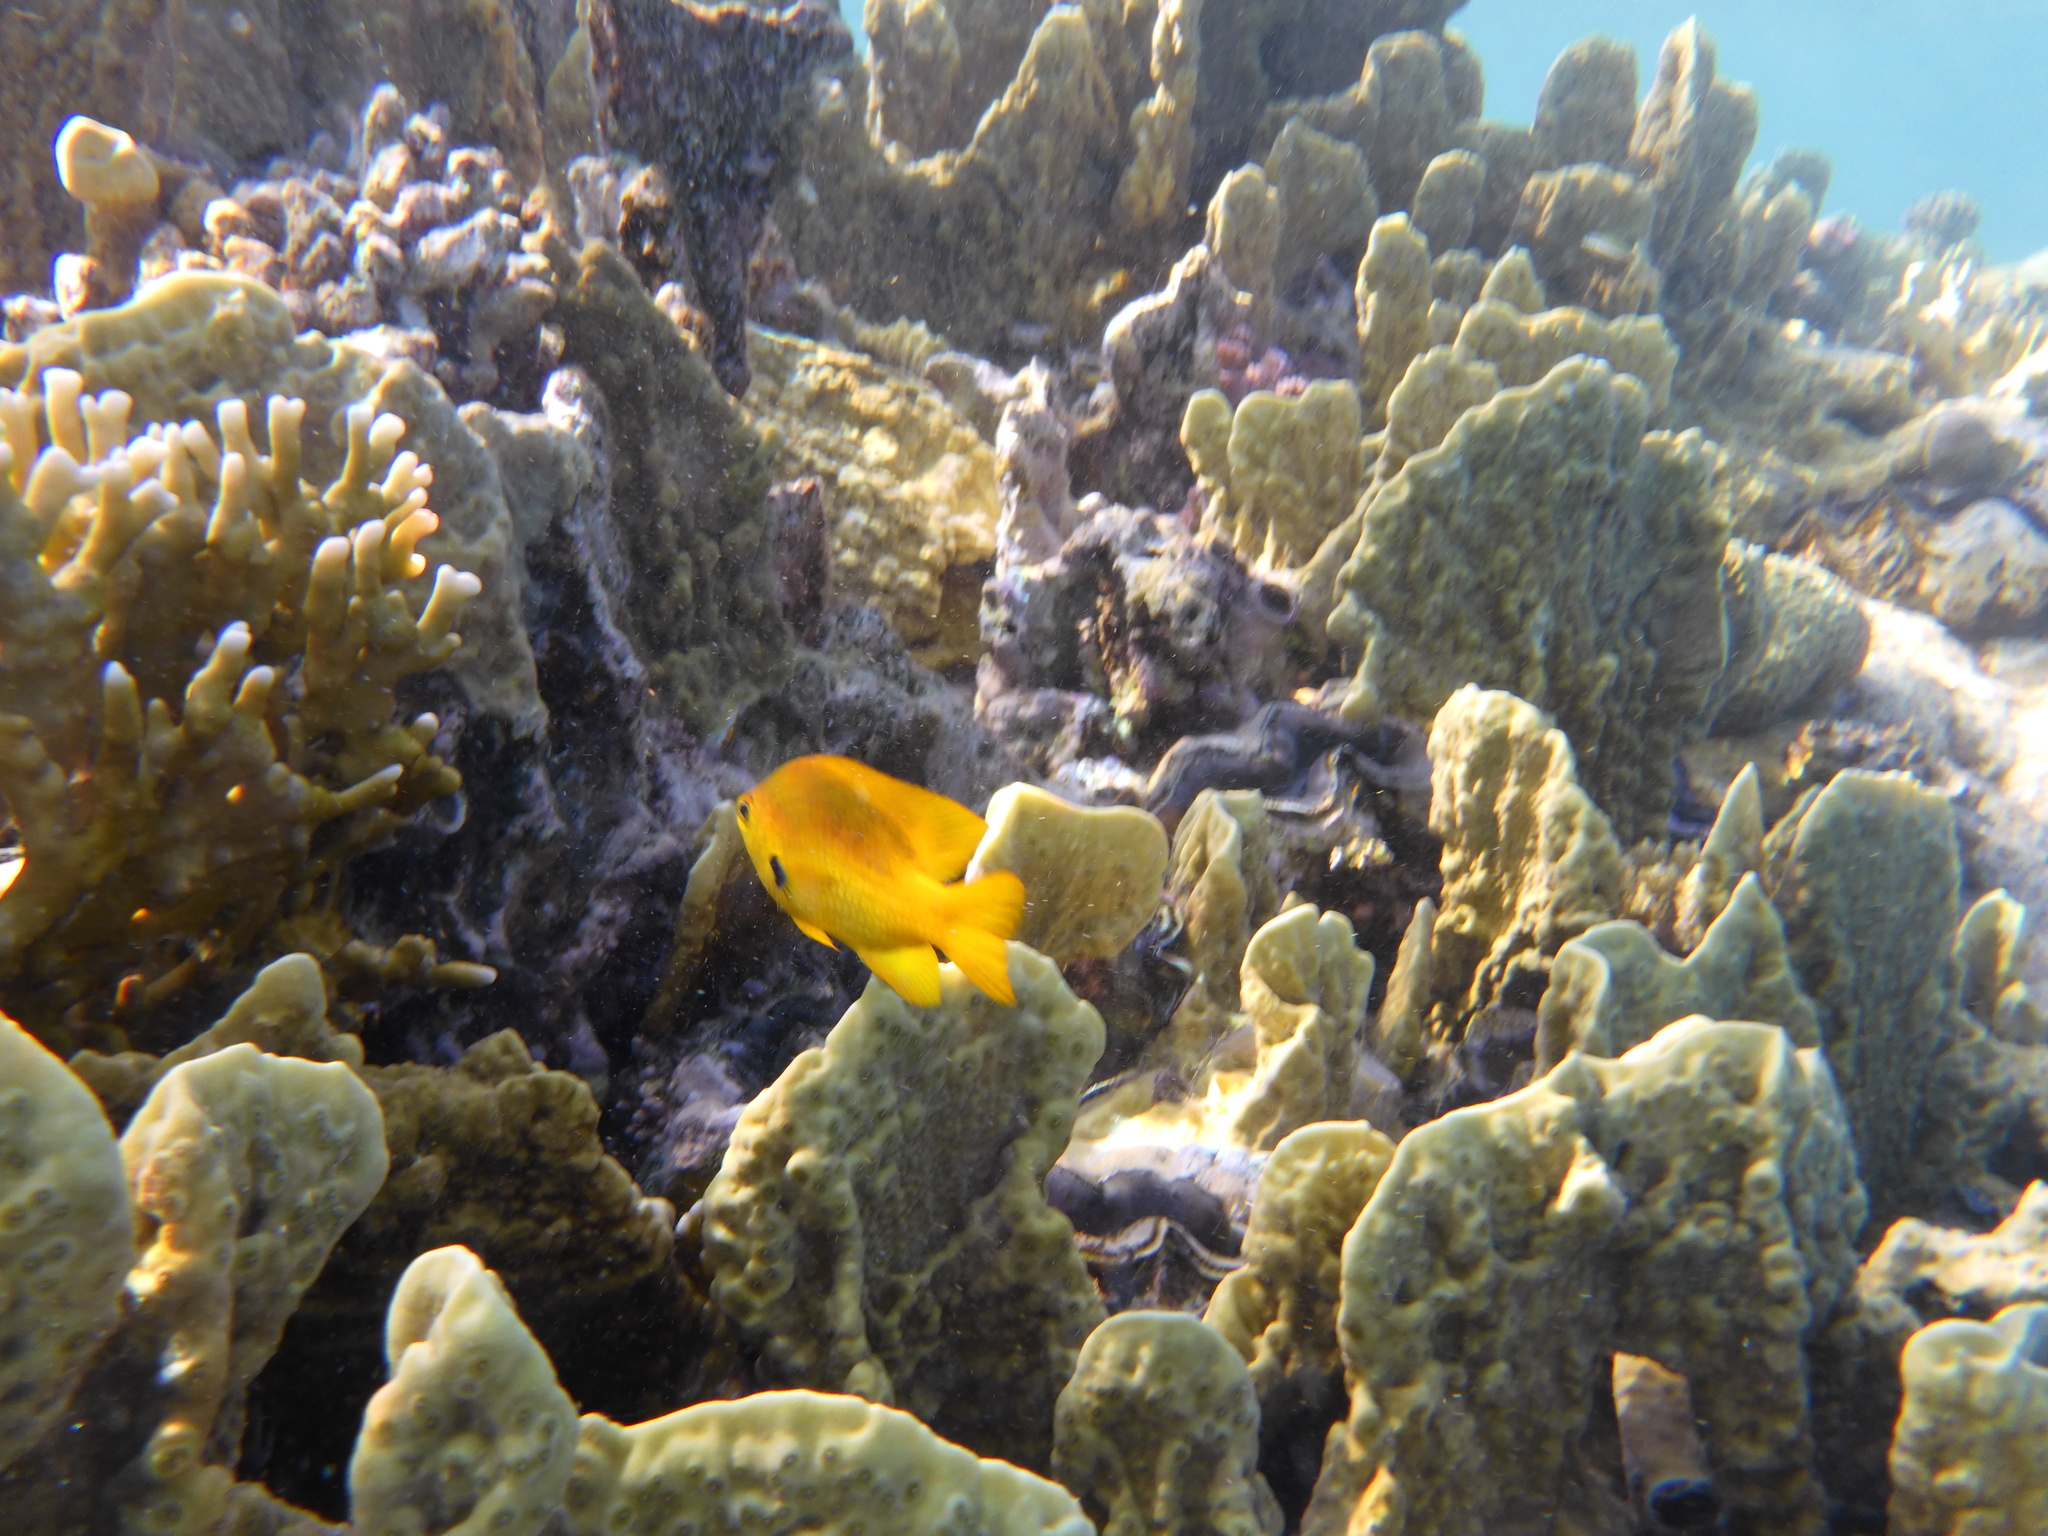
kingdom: Animalia
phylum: Chordata
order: Perciformes
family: Pomacentridae
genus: Pomacentrus
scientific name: Pomacentrus sulfureus
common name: Sulfur damsel
